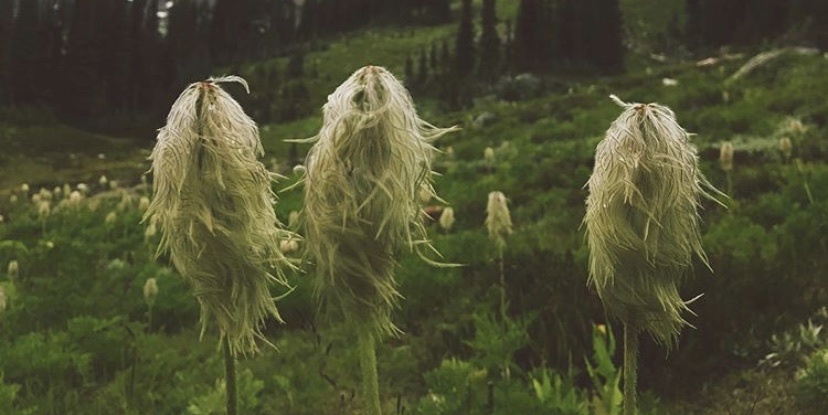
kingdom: Plantae
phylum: Tracheophyta
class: Magnoliopsida
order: Ranunculales
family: Ranunculaceae
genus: Pulsatilla
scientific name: Pulsatilla occidentalis
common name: Mountain pasqueflower
